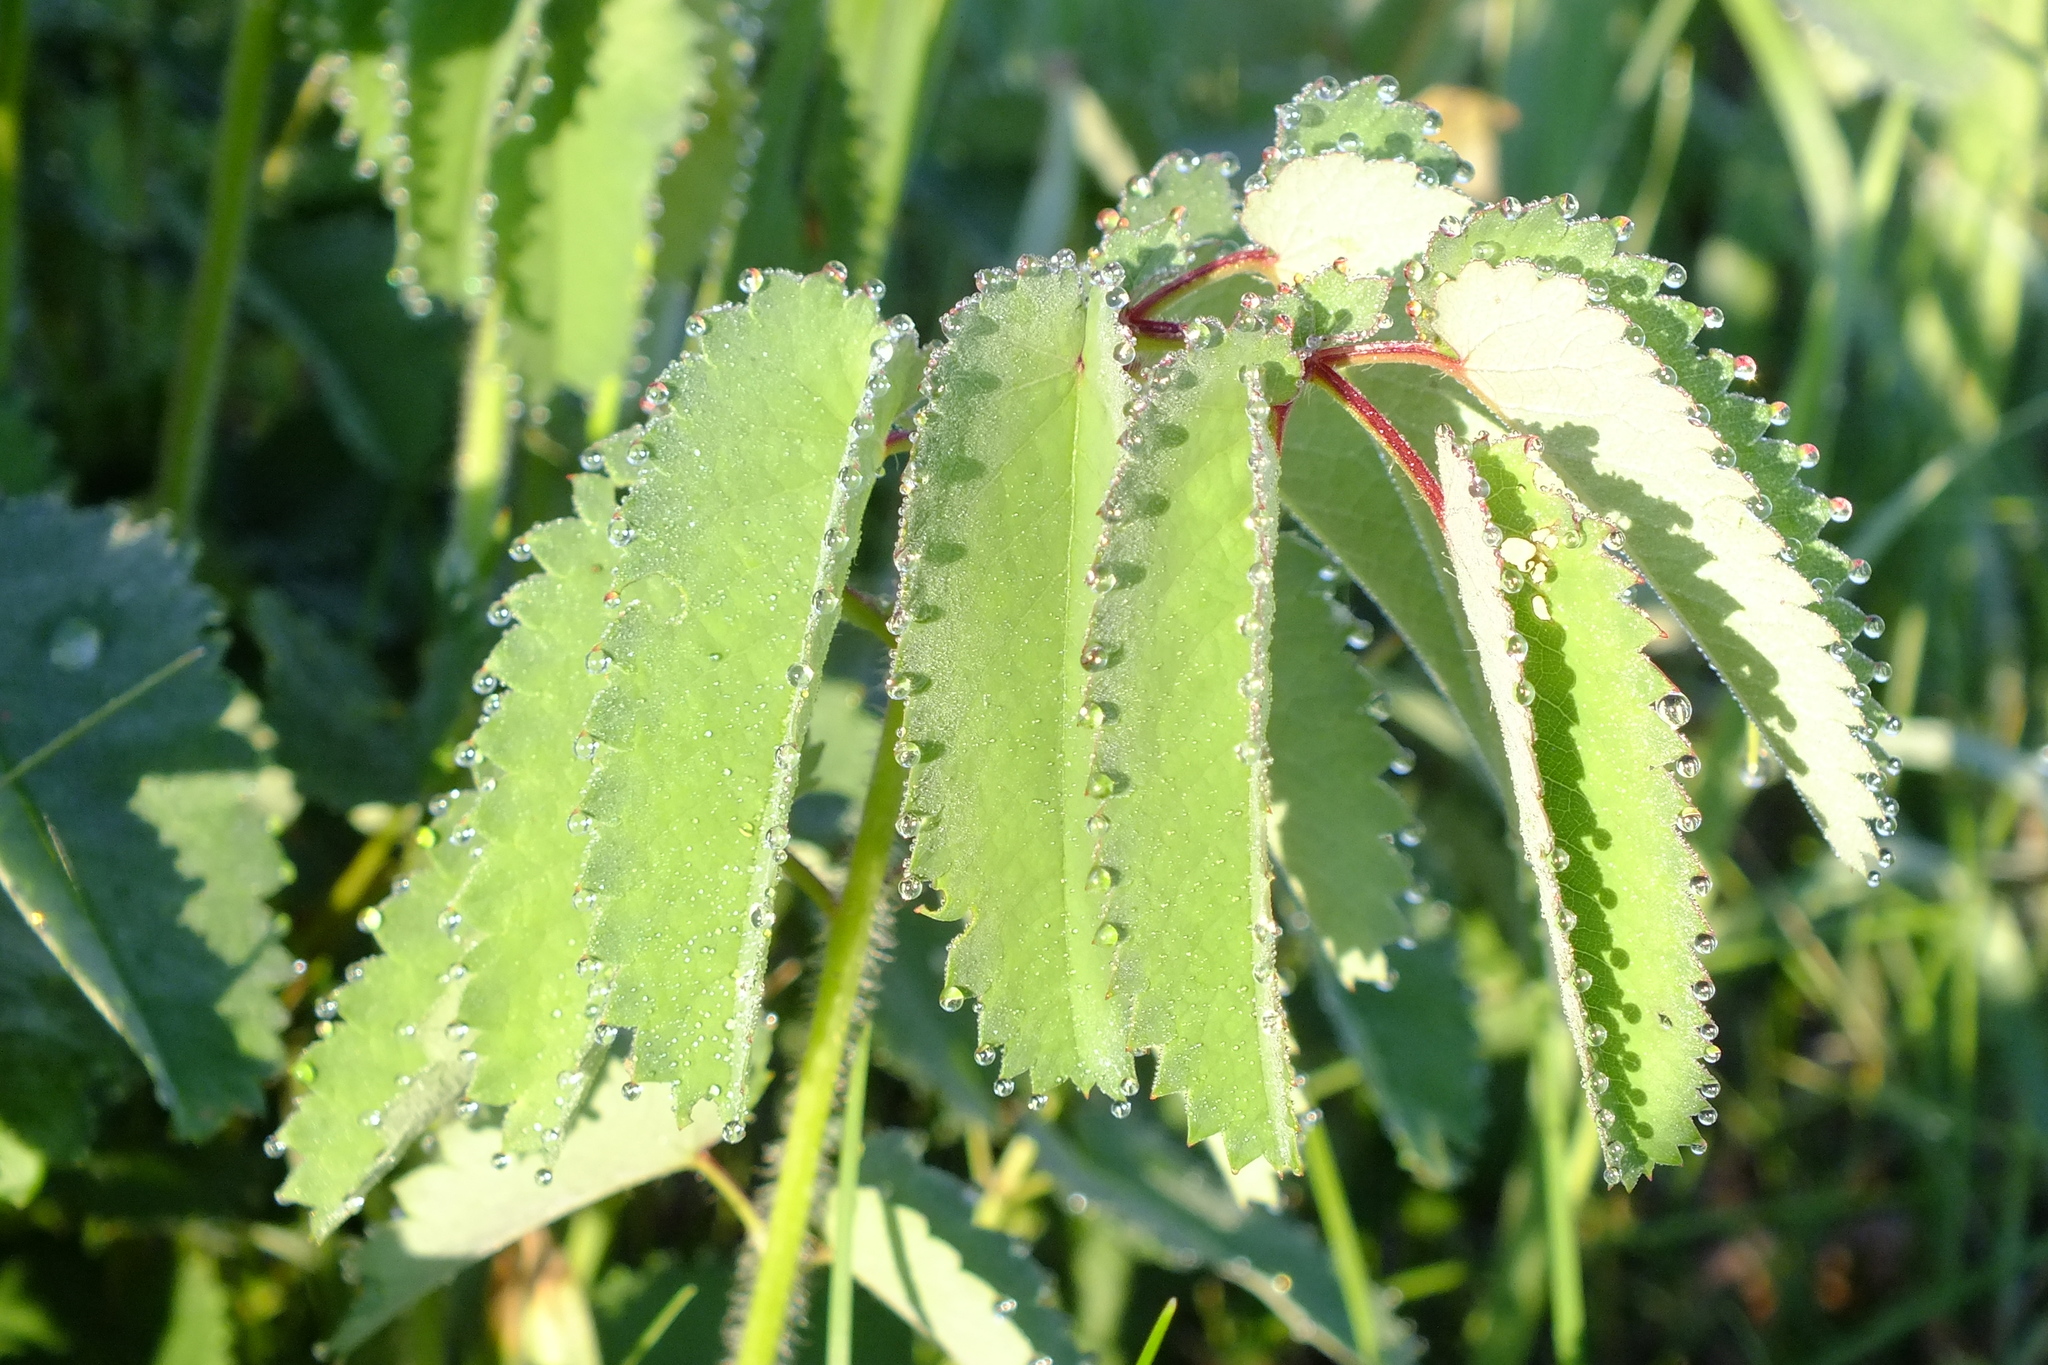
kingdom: Plantae
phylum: Tracheophyta
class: Magnoliopsida
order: Rosales
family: Rosaceae
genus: Sanguisorba
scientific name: Sanguisorba officinalis
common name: Great burnet
